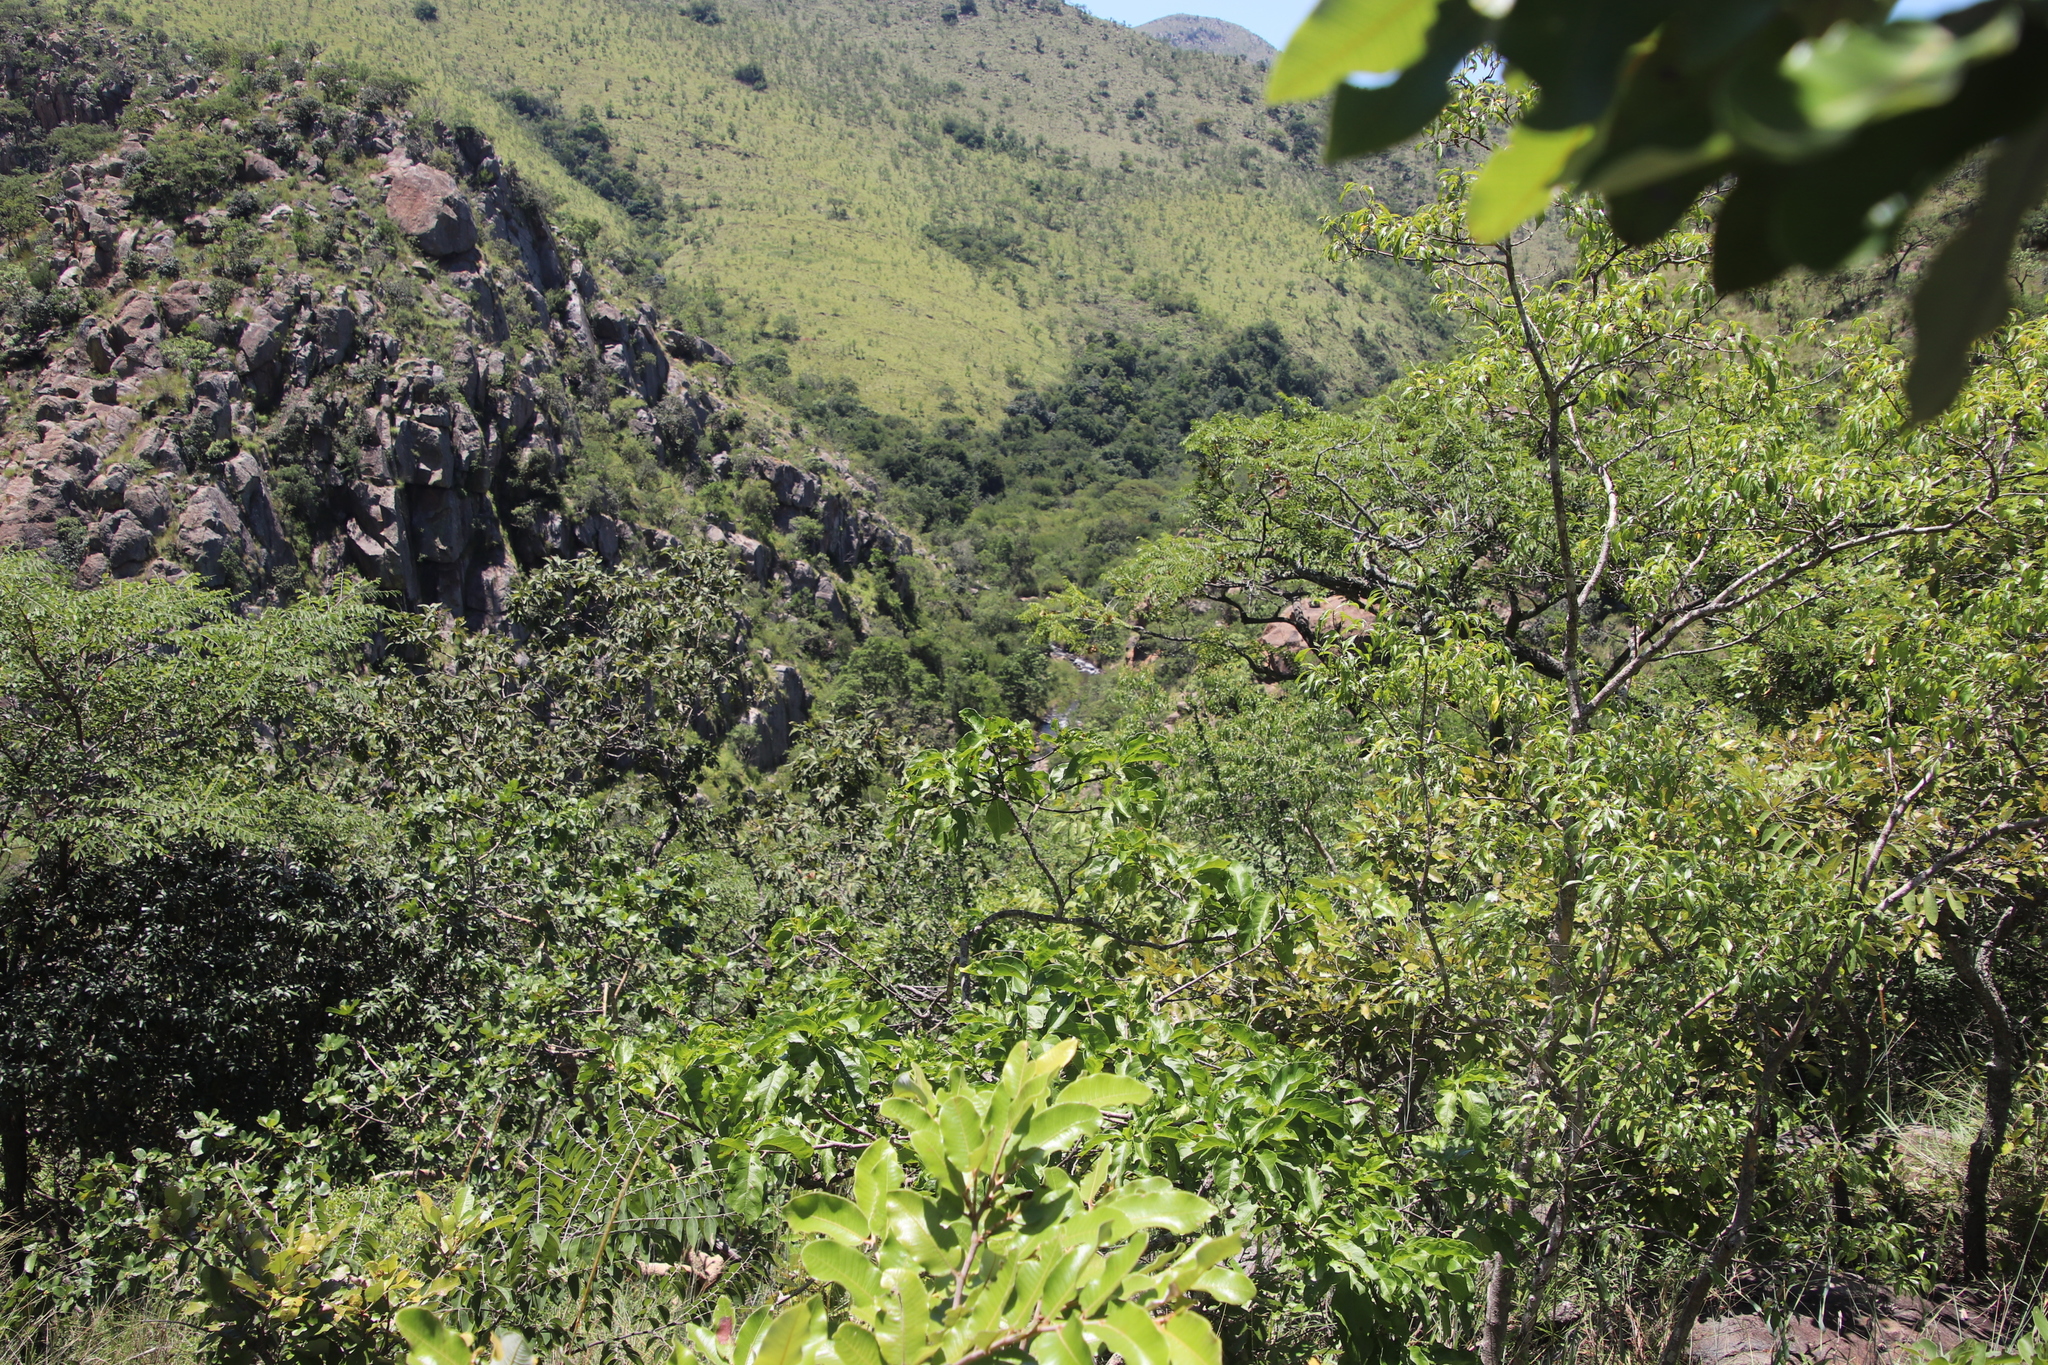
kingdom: Plantae
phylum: Tracheophyta
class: Magnoliopsida
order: Fabales
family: Fabaceae
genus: Pterocarpus
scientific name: Pterocarpus angolensis
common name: Bloodwood tree
